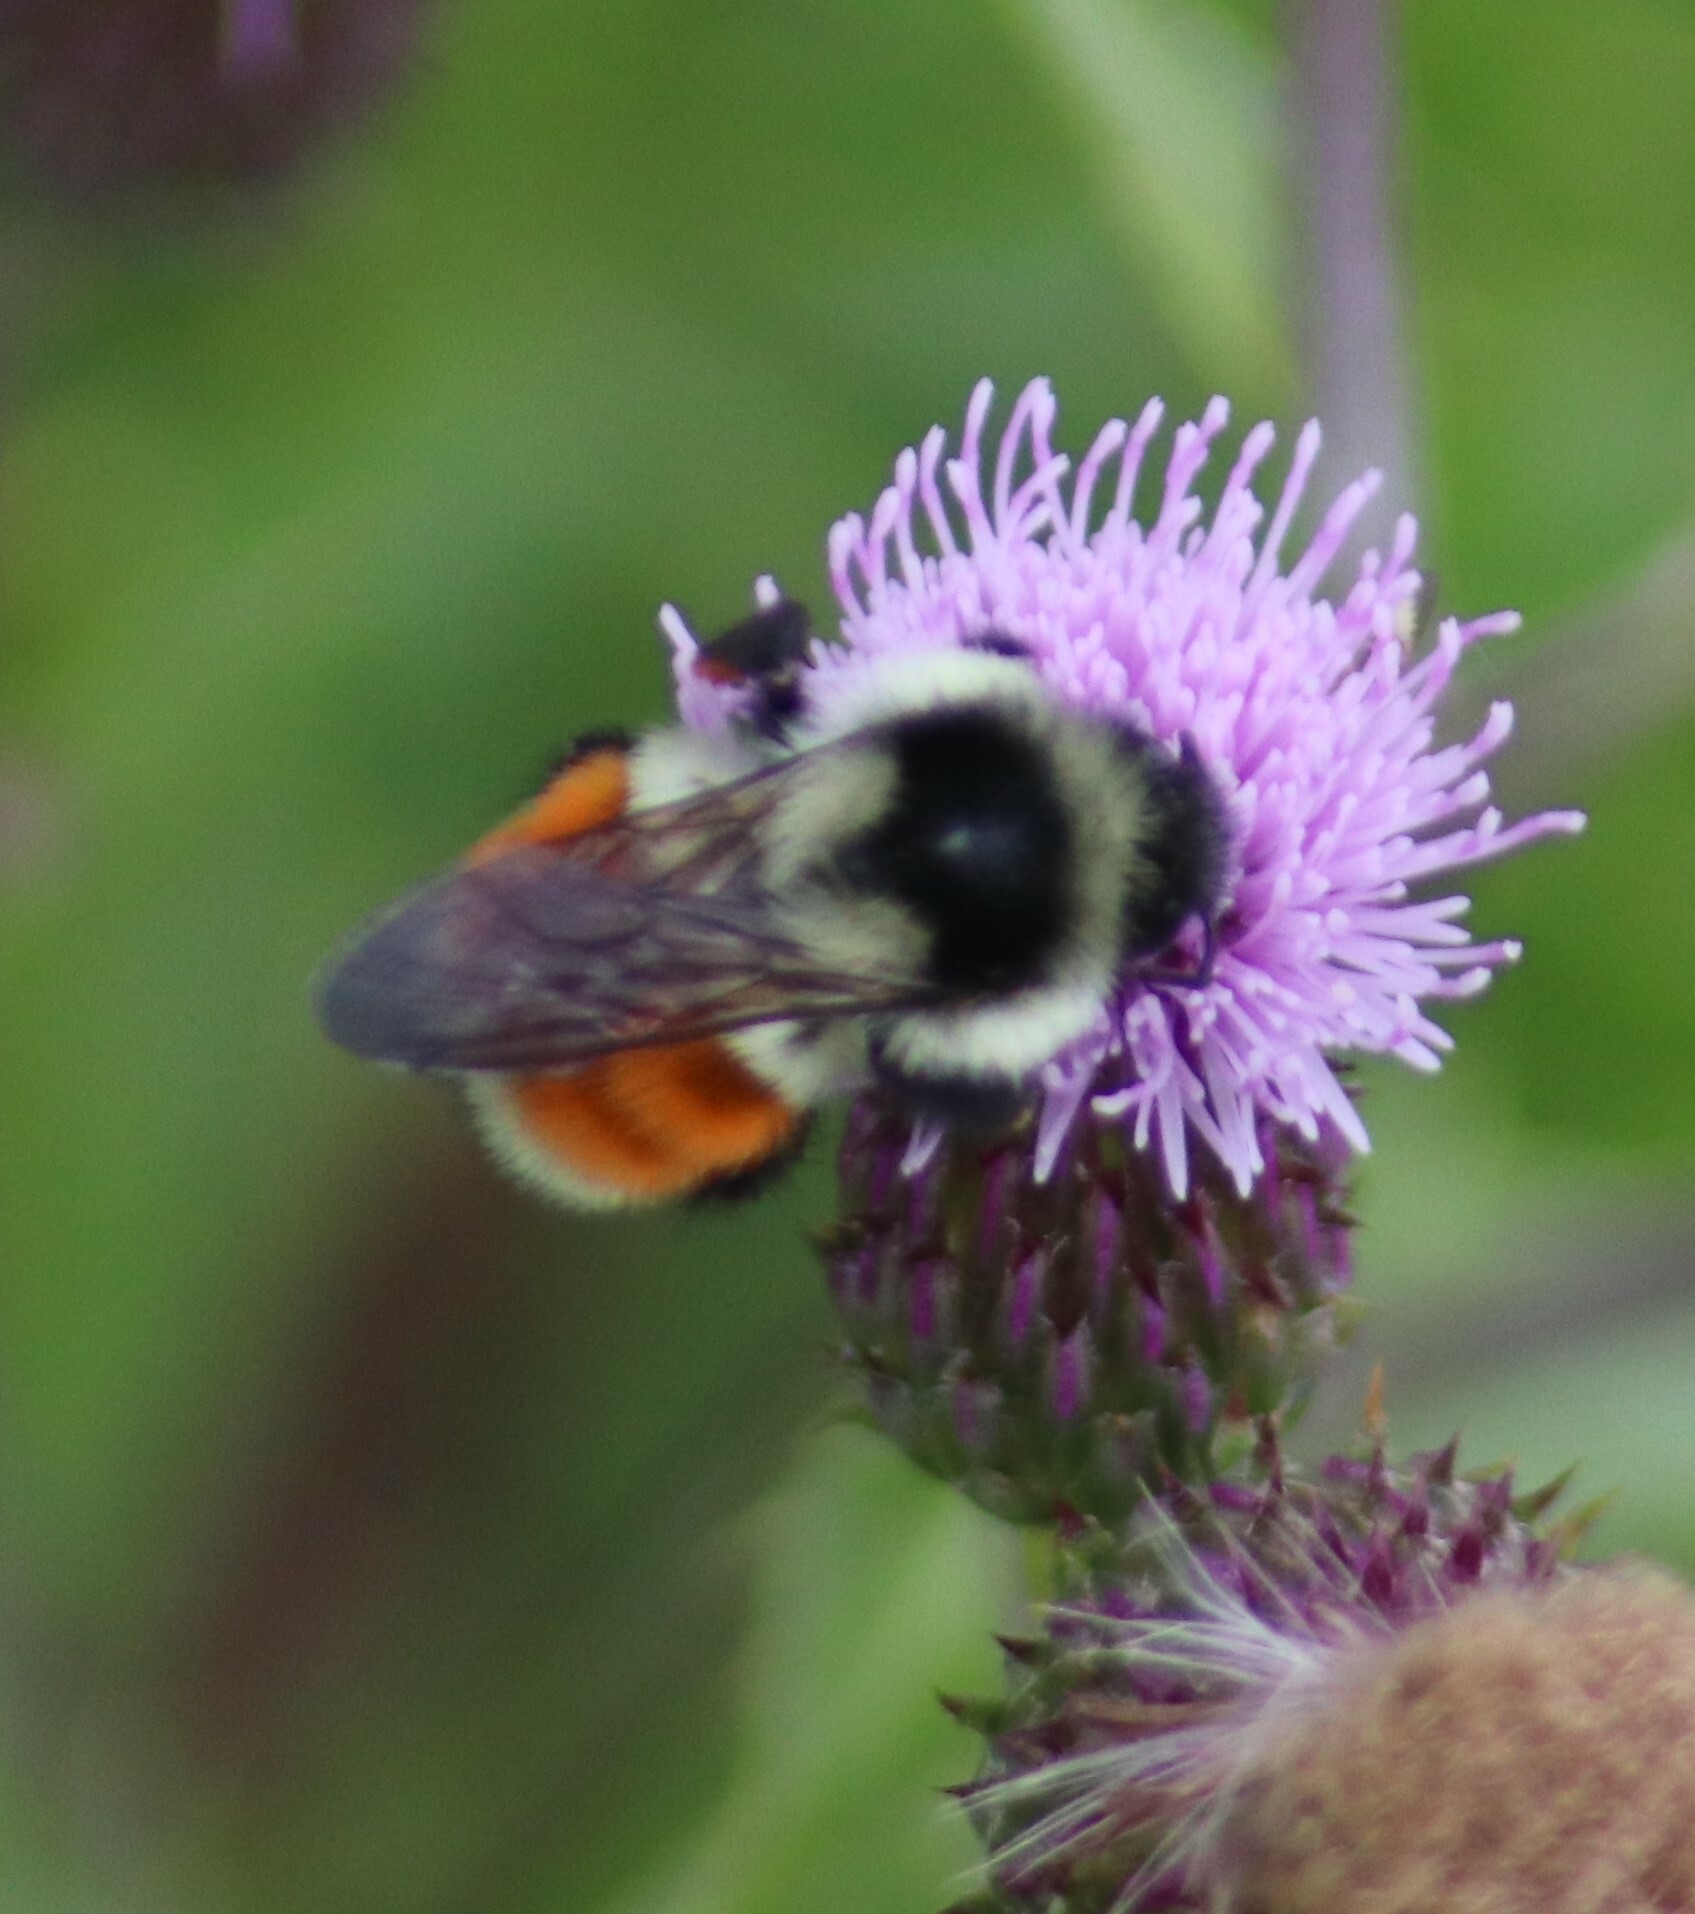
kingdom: Animalia
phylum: Arthropoda
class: Insecta
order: Hymenoptera
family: Apidae
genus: Bombus
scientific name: Bombus ternarius
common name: Tri-colored bumble bee
